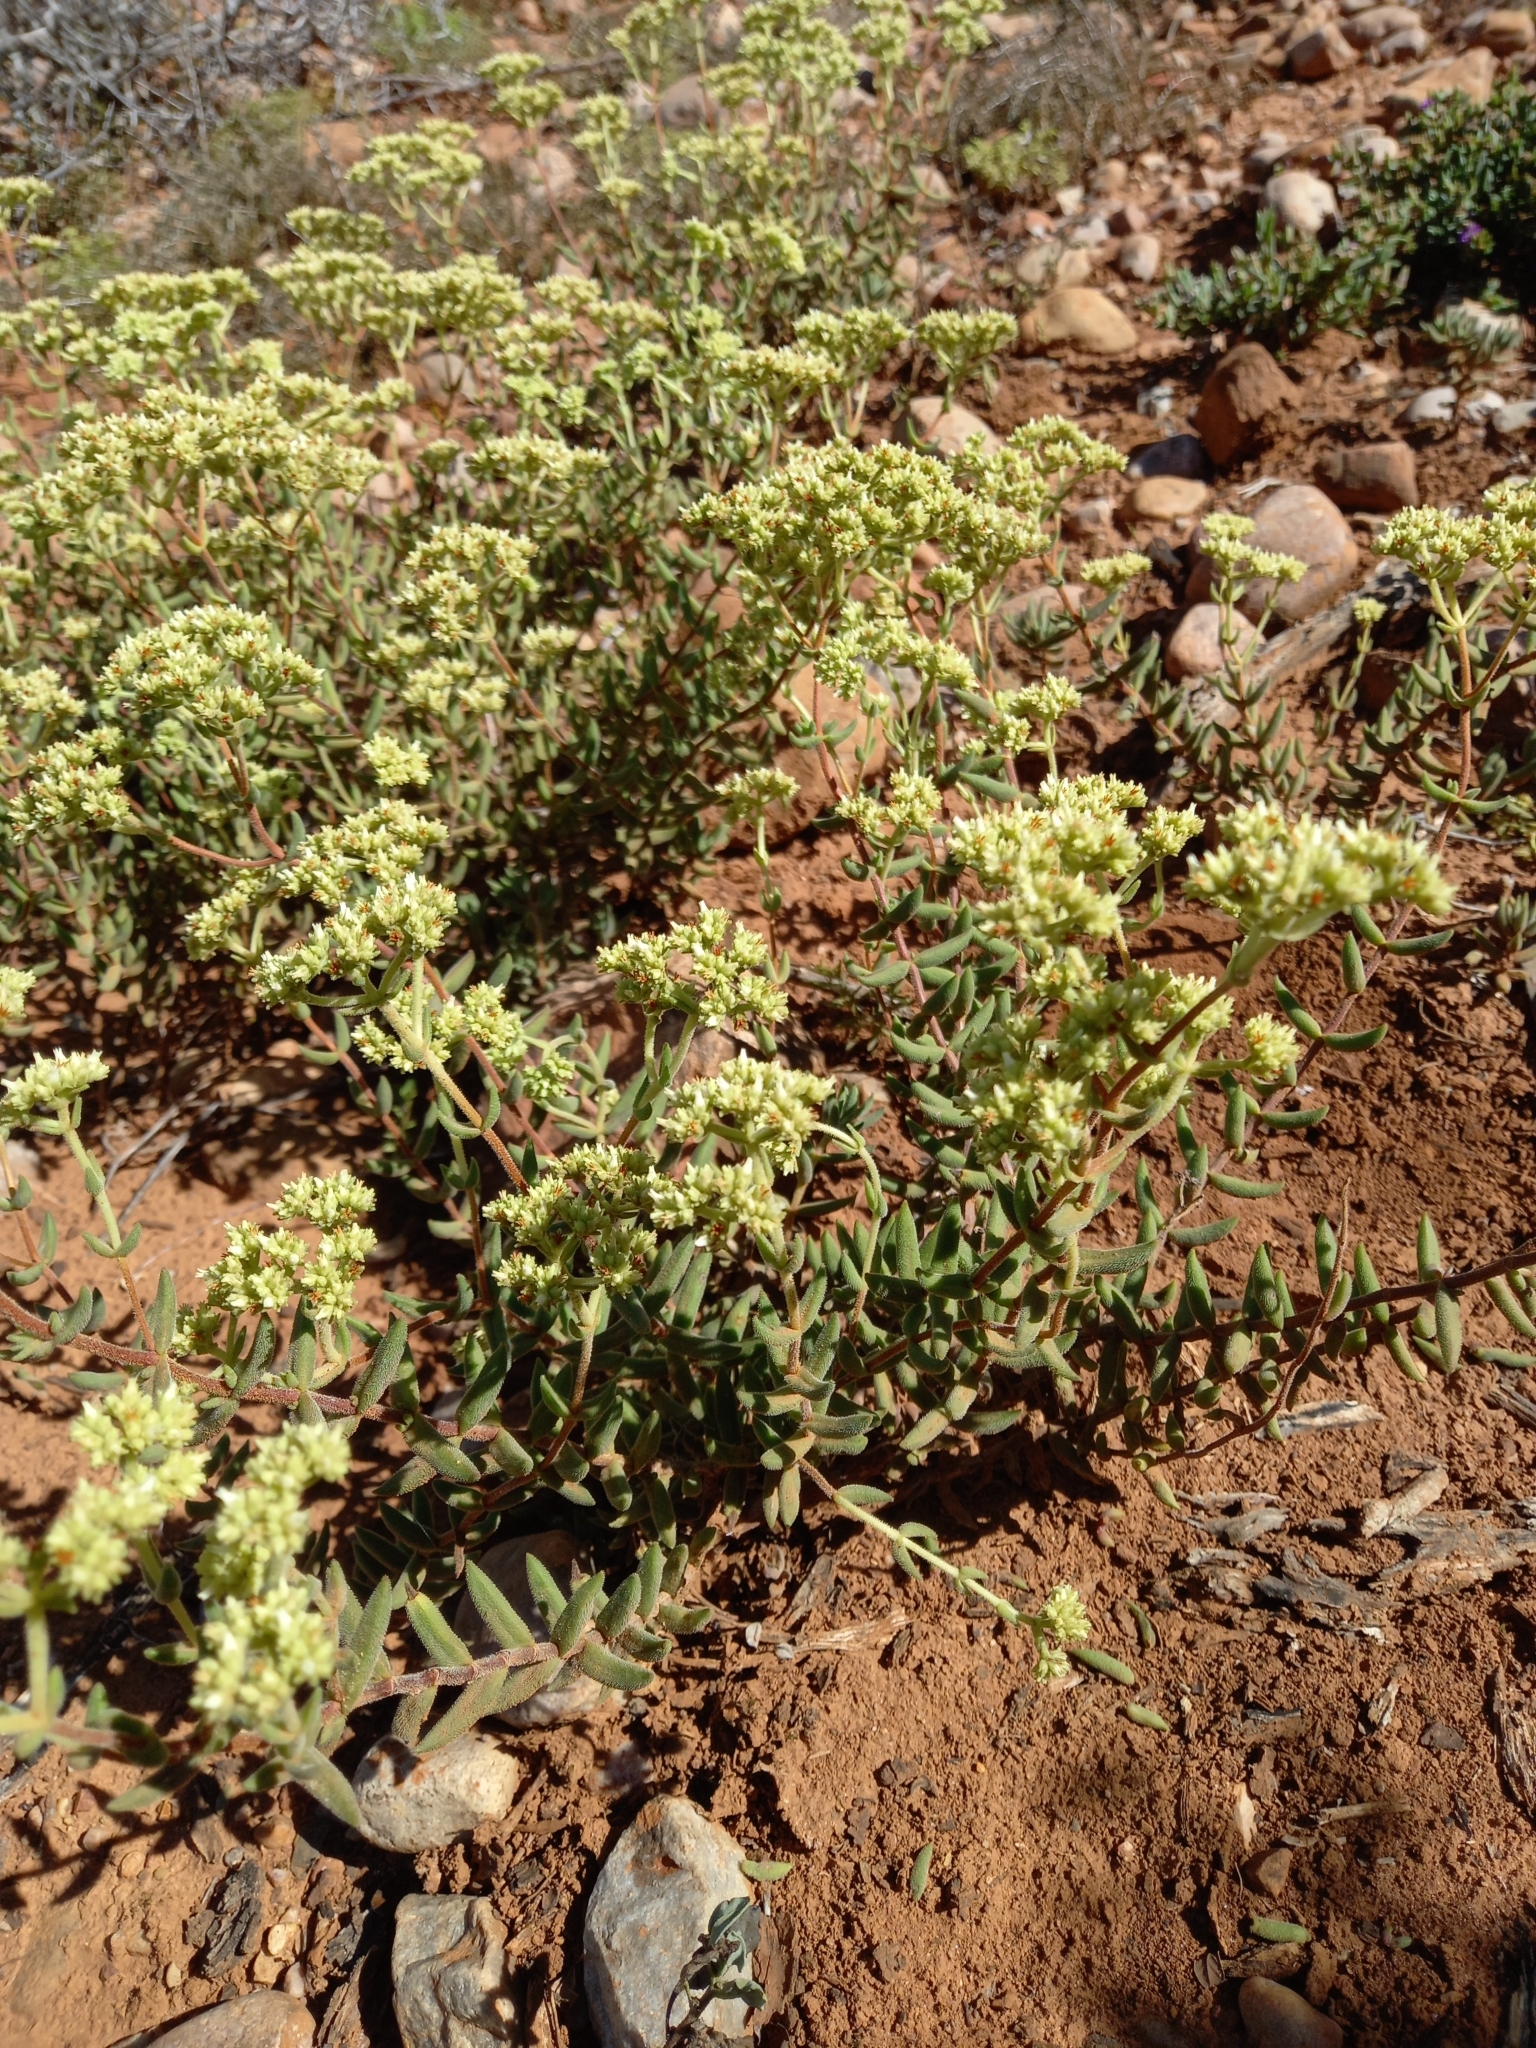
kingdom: Plantae
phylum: Tracheophyta
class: Magnoliopsida
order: Saxifragales
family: Crassulaceae
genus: Crassula
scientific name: Crassula mesembryanthoides
